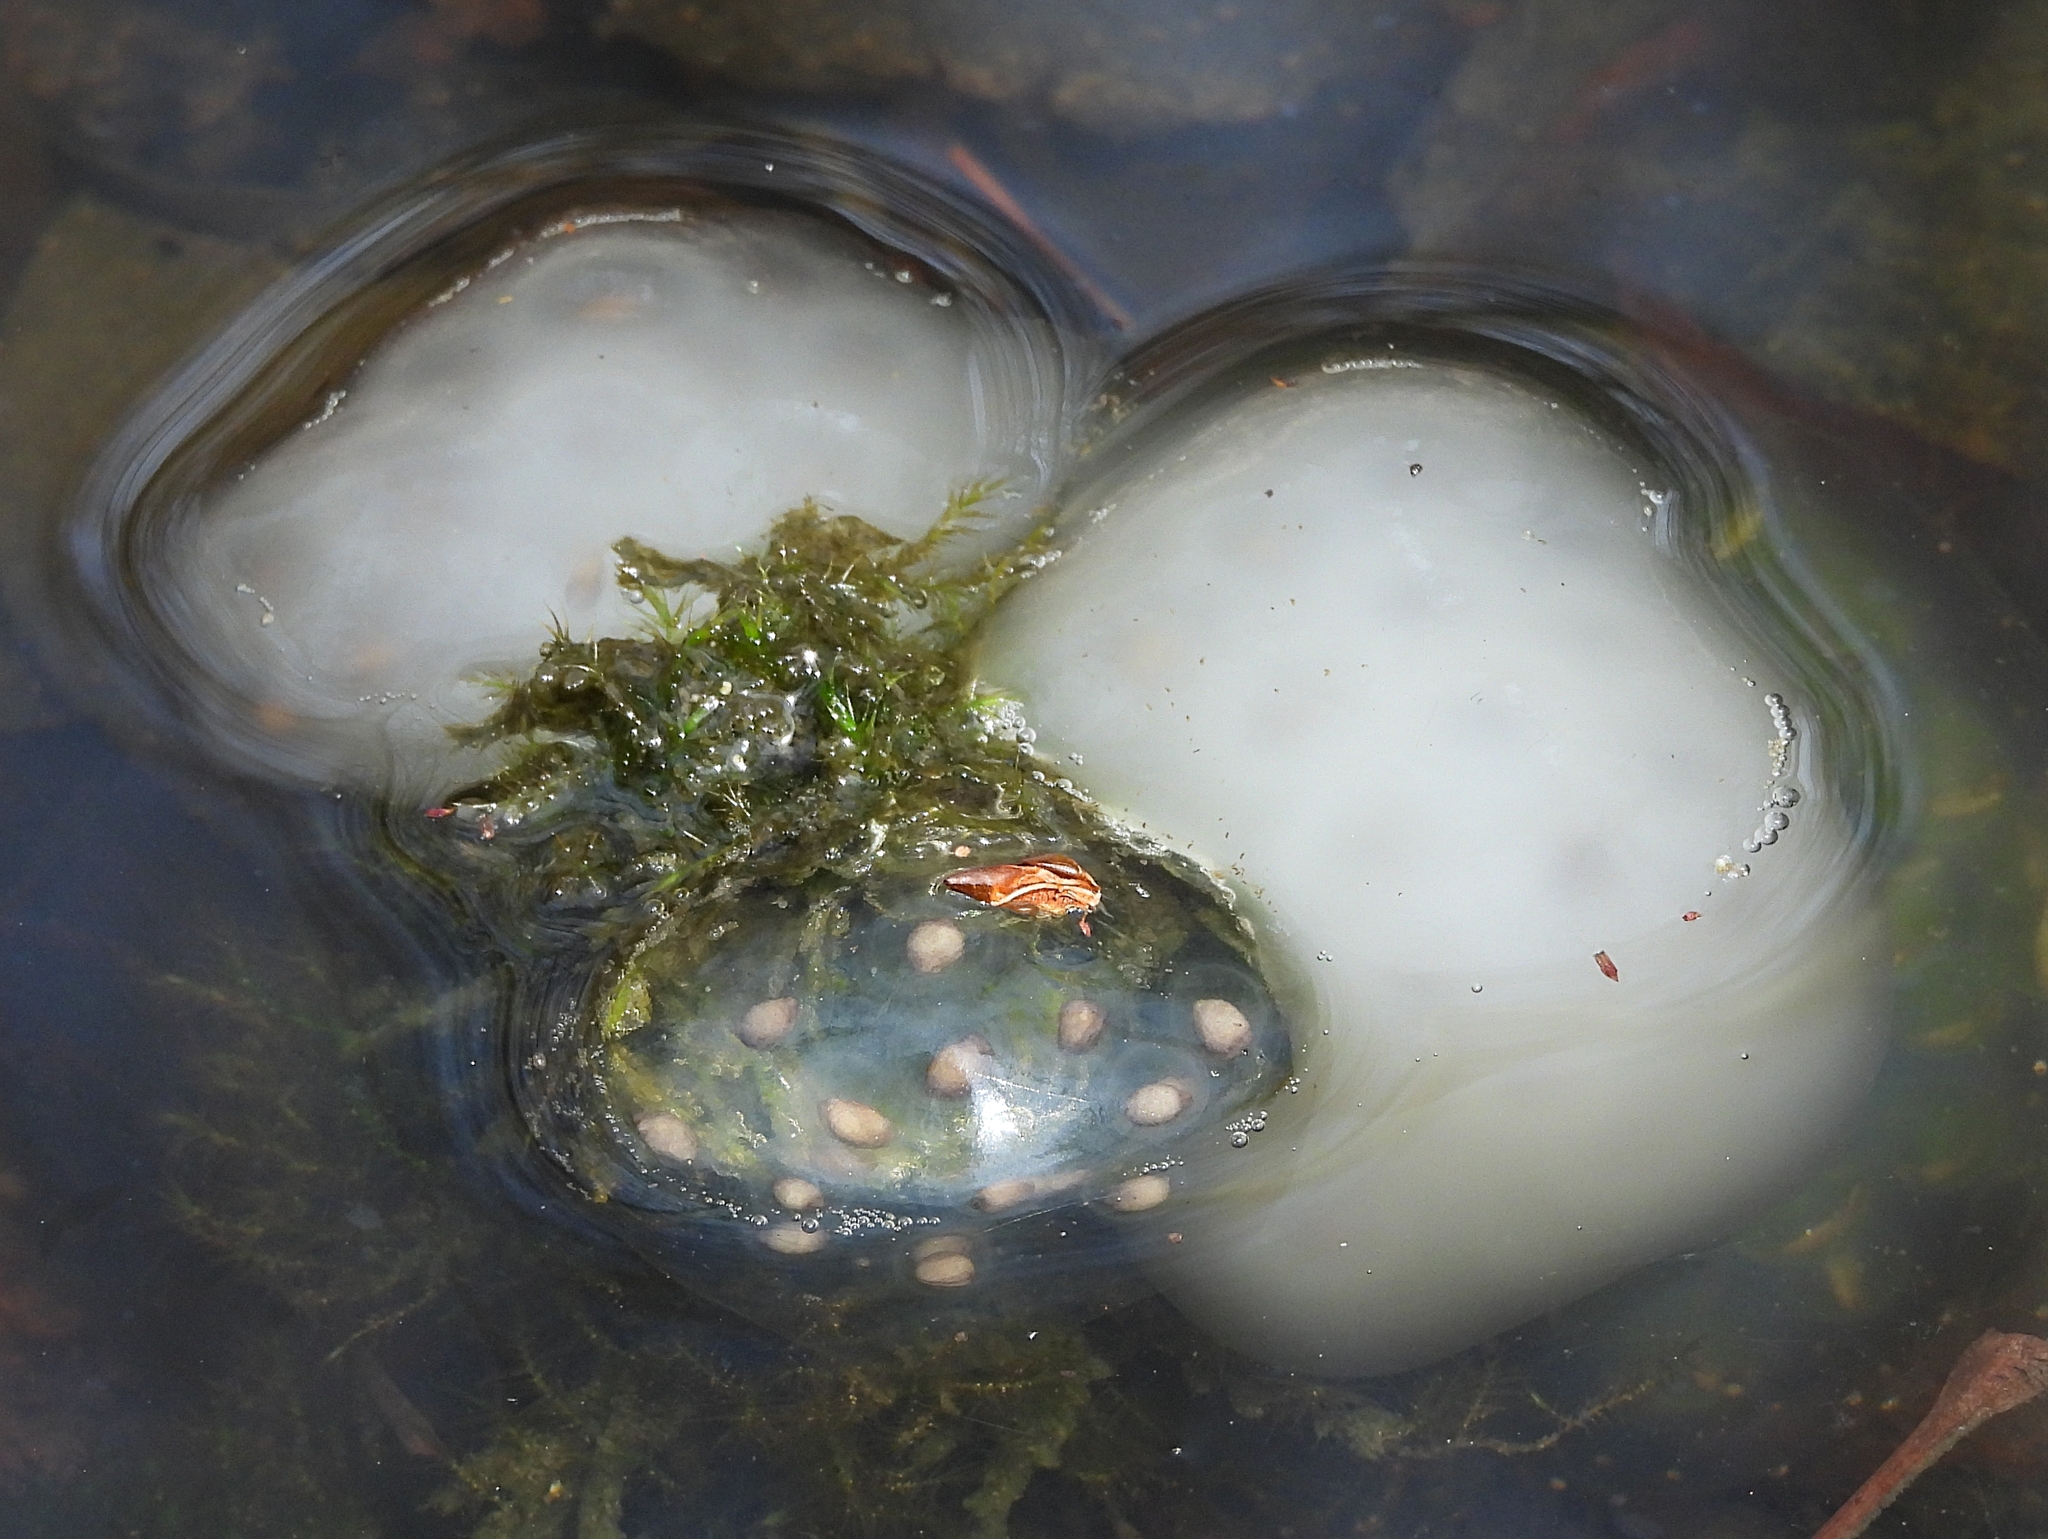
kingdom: Animalia
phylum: Chordata
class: Amphibia
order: Caudata
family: Ambystomatidae
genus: Ambystoma
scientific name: Ambystoma maculatum
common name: Spotted salamander
